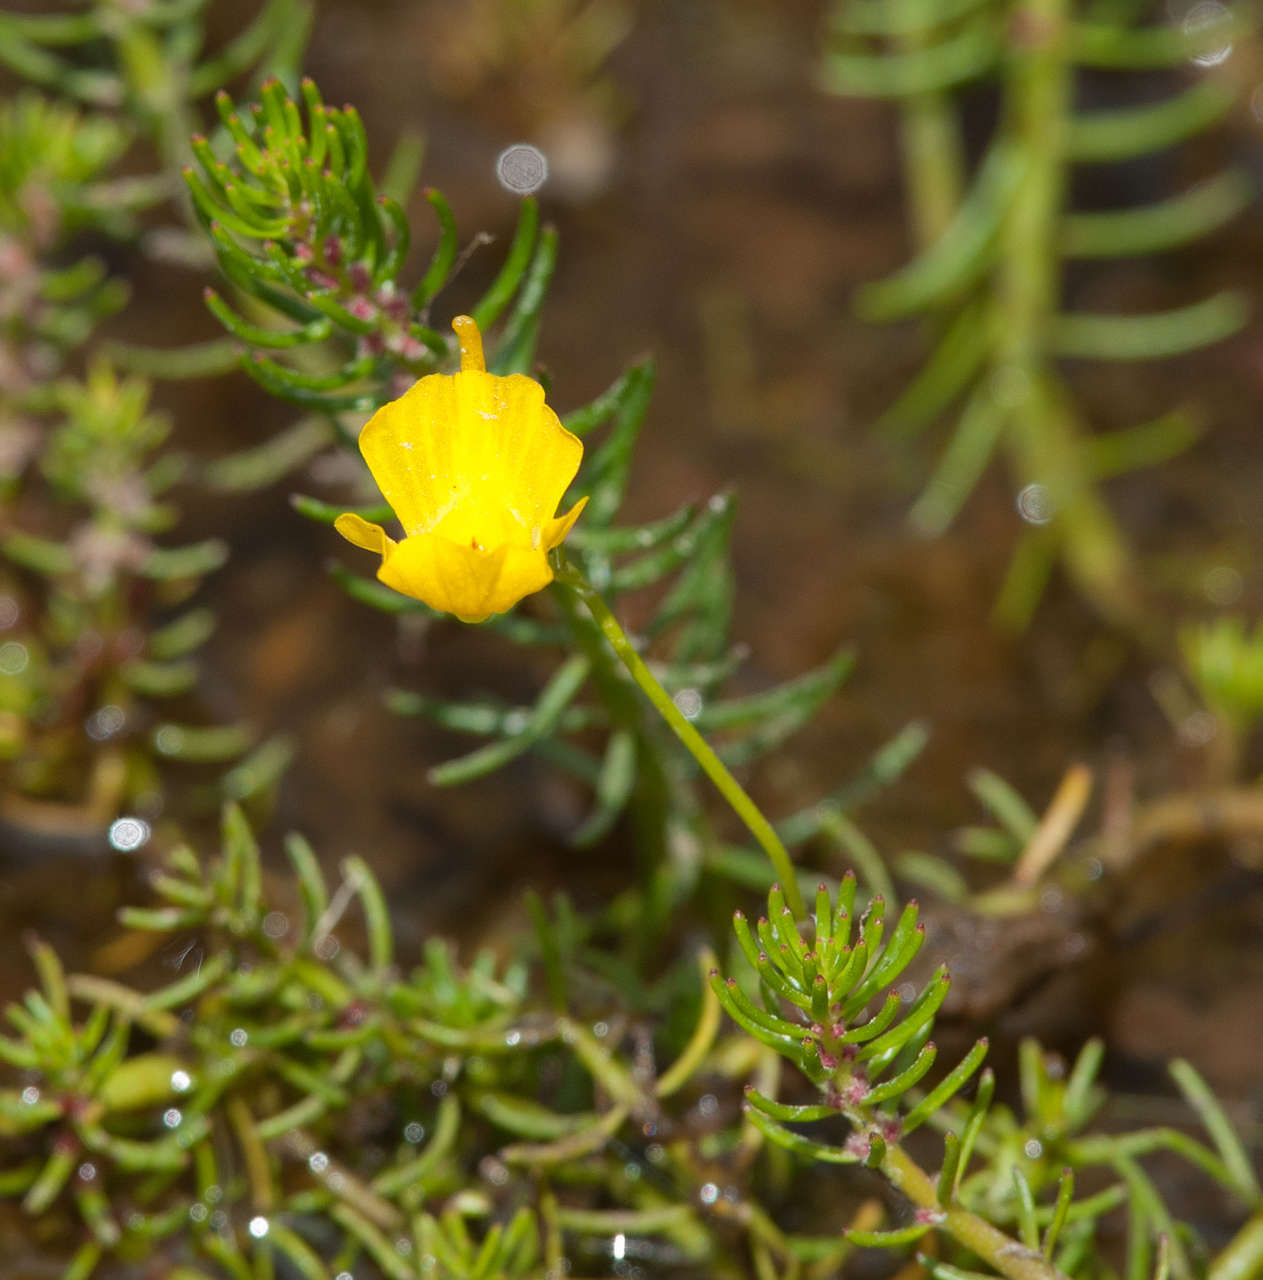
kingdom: Plantae
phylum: Tracheophyta
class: Magnoliopsida
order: Lamiales
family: Lentibulariaceae
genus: Utricularia
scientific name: Utricularia gibba
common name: Humped bladderwort
